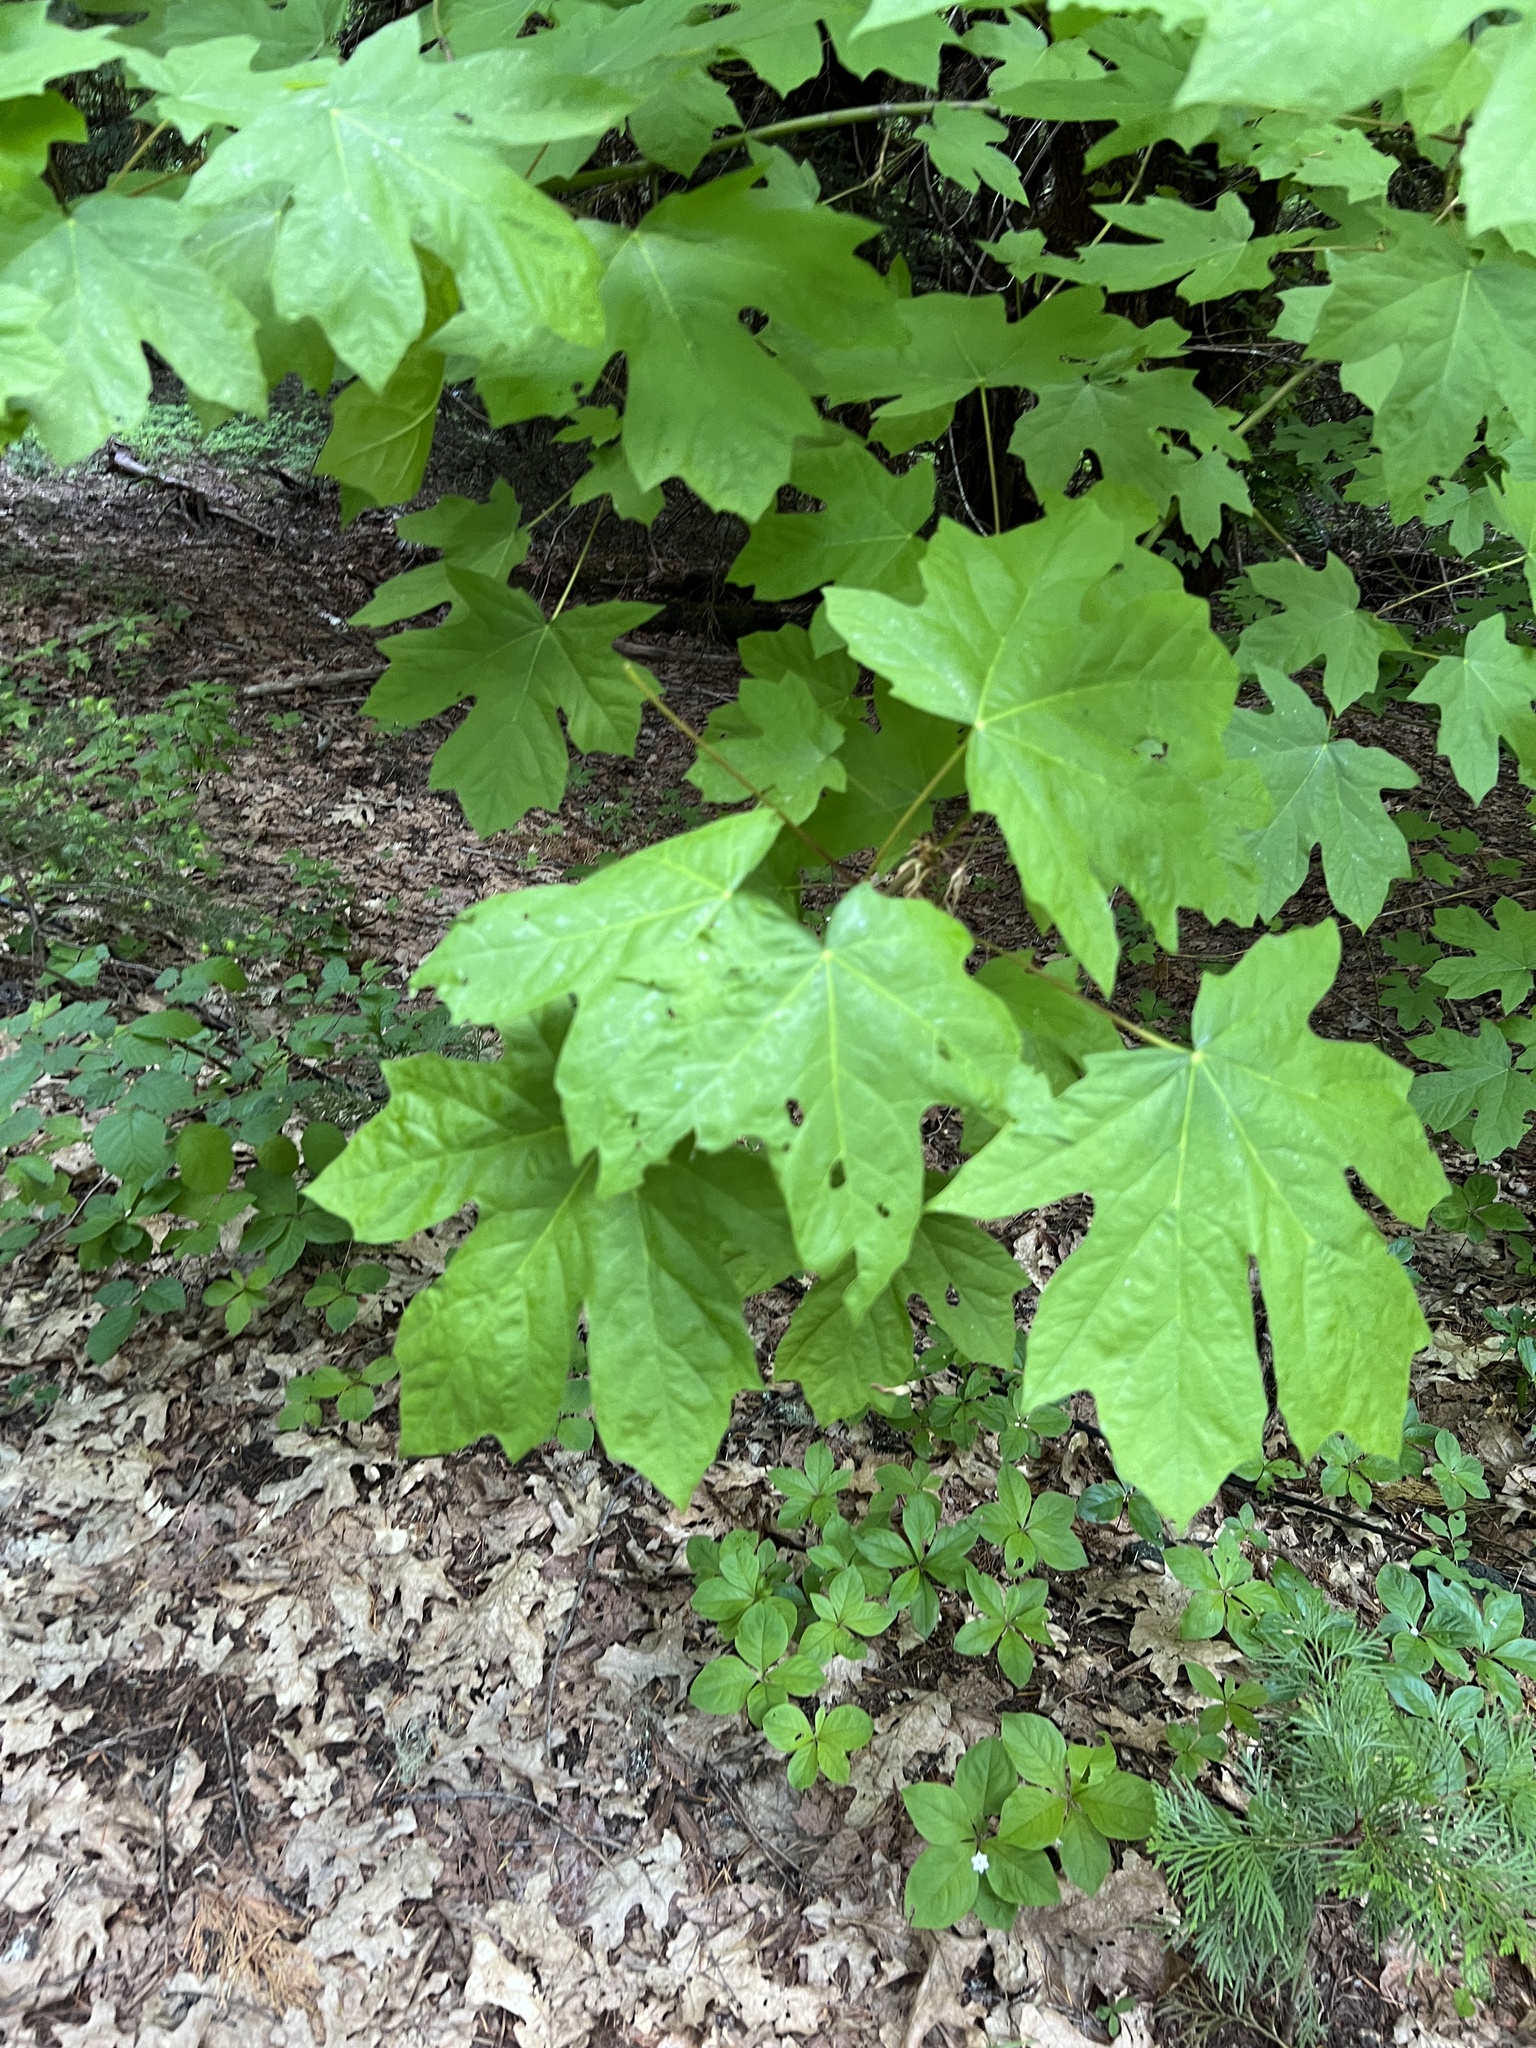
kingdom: Plantae
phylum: Tracheophyta
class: Magnoliopsida
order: Sapindales
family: Sapindaceae
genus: Acer
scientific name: Acer macrophyllum
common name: Oregon maple
